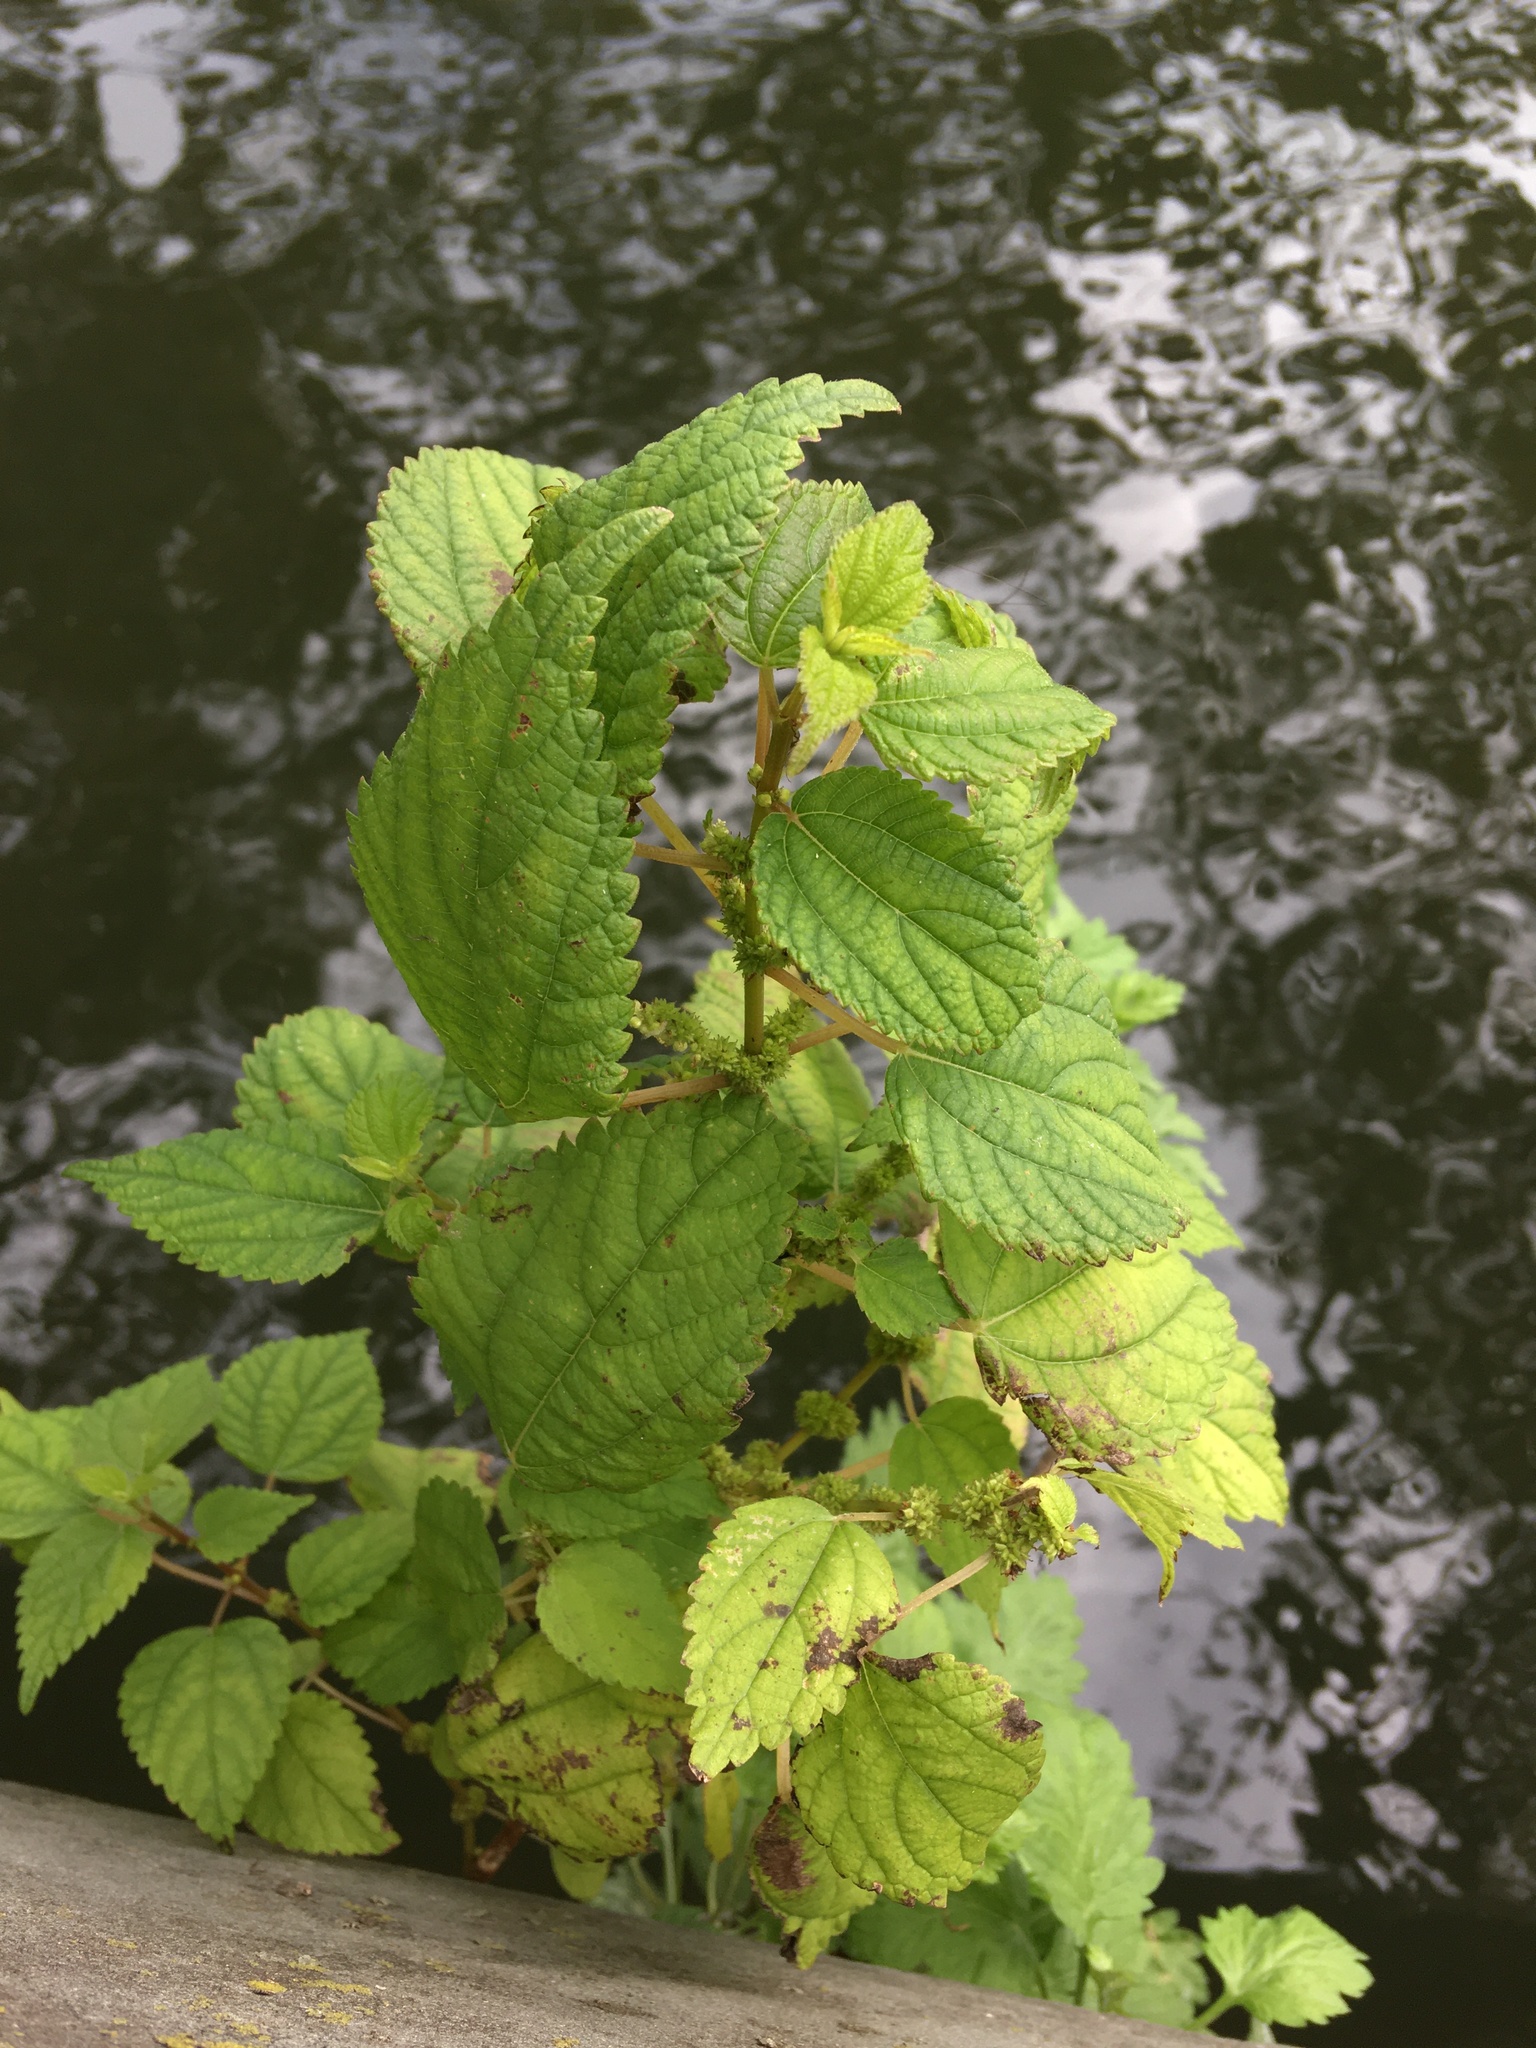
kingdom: Plantae
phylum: Tracheophyta
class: Magnoliopsida
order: Rosales
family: Urticaceae
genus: Boehmeria
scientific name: Boehmeria cylindrica
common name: Bog-hemp
